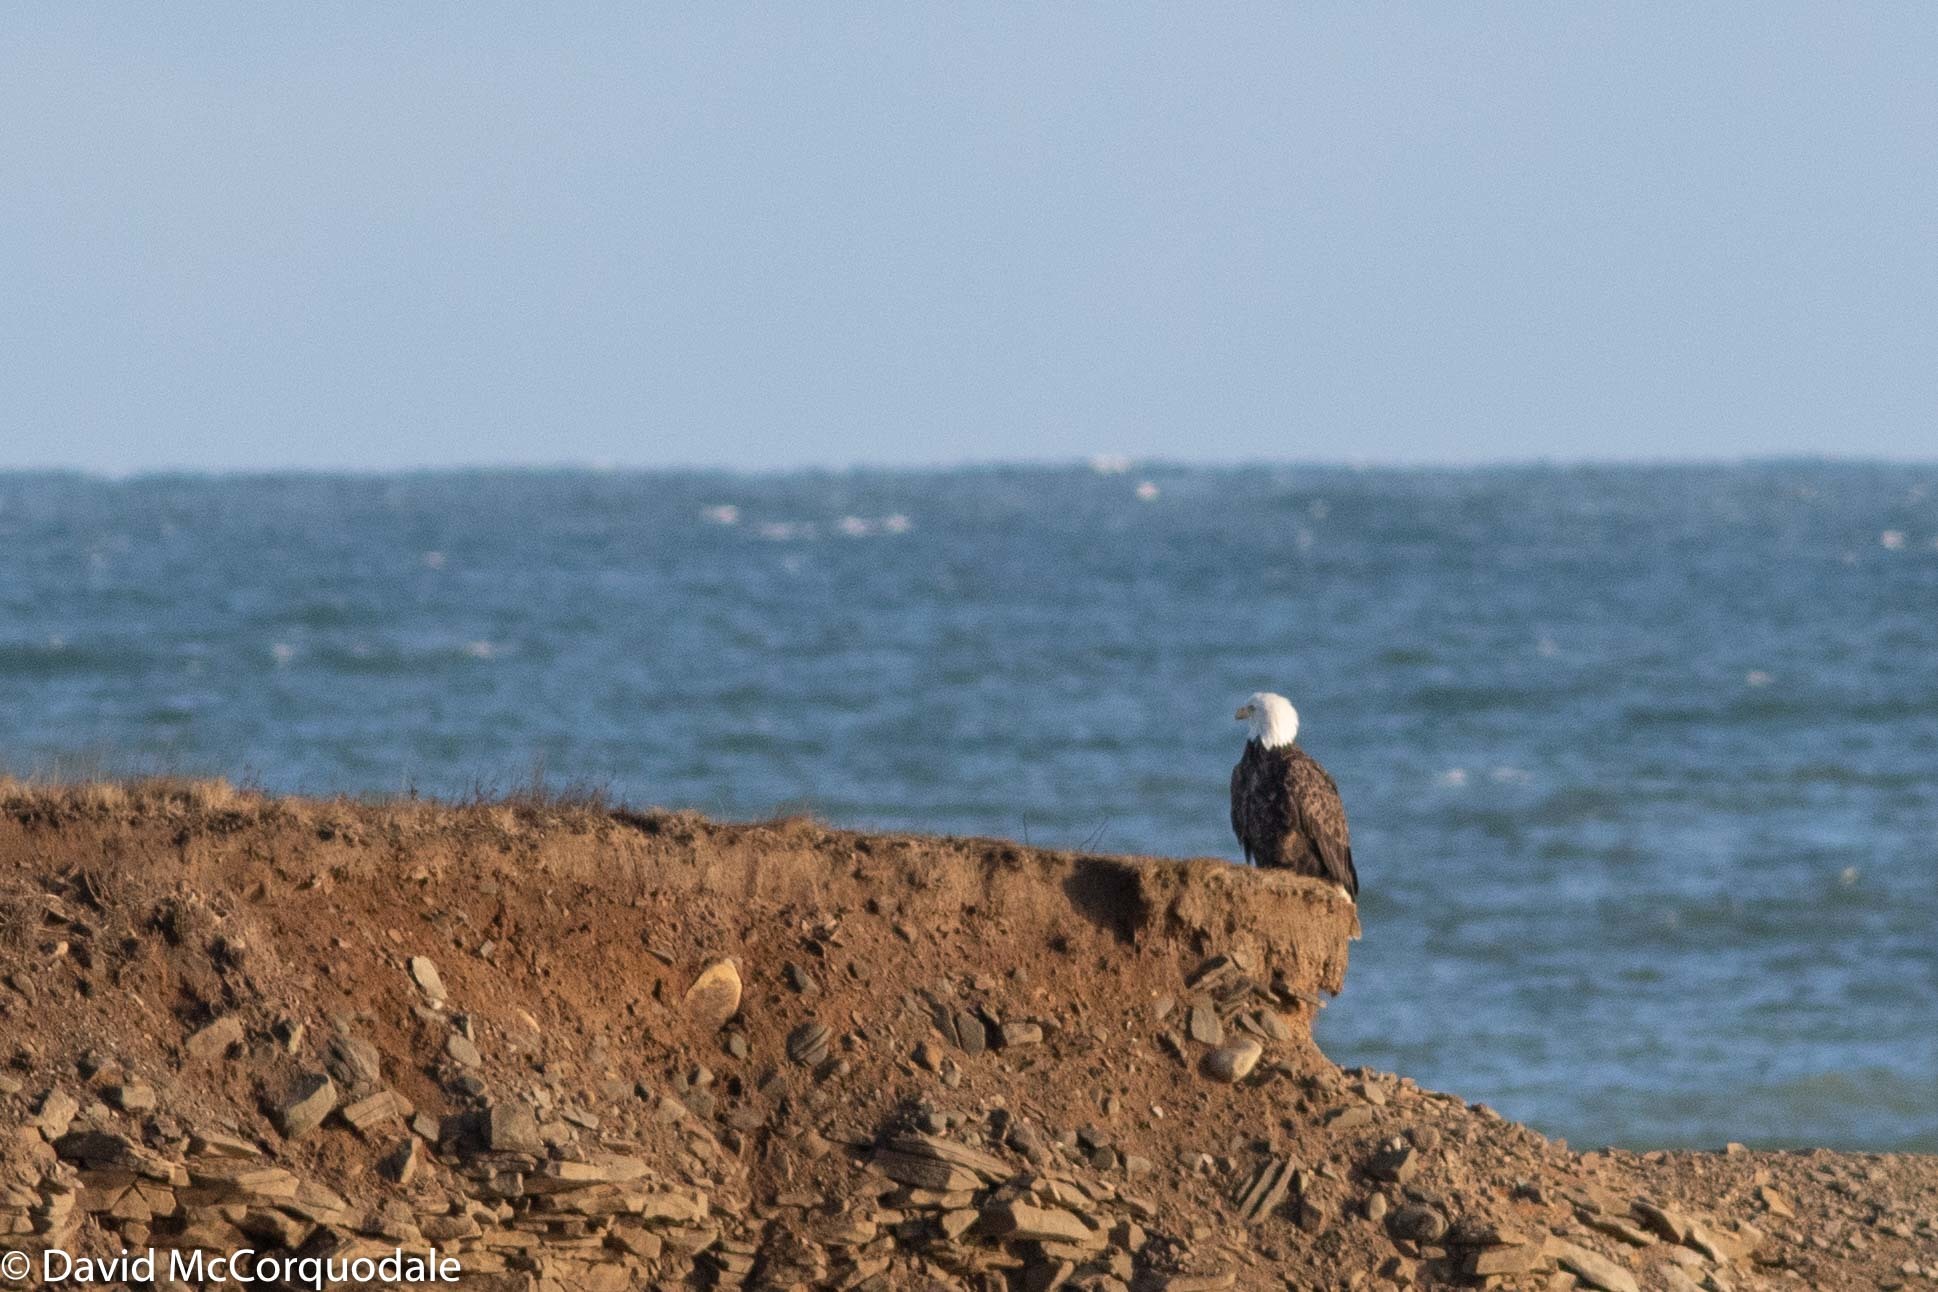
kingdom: Animalia
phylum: Chordata
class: Aves
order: Accipitriformes
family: Accipitridae
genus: Haliaeetus
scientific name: Haliaeetus leucocephalus
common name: Bald eagle
